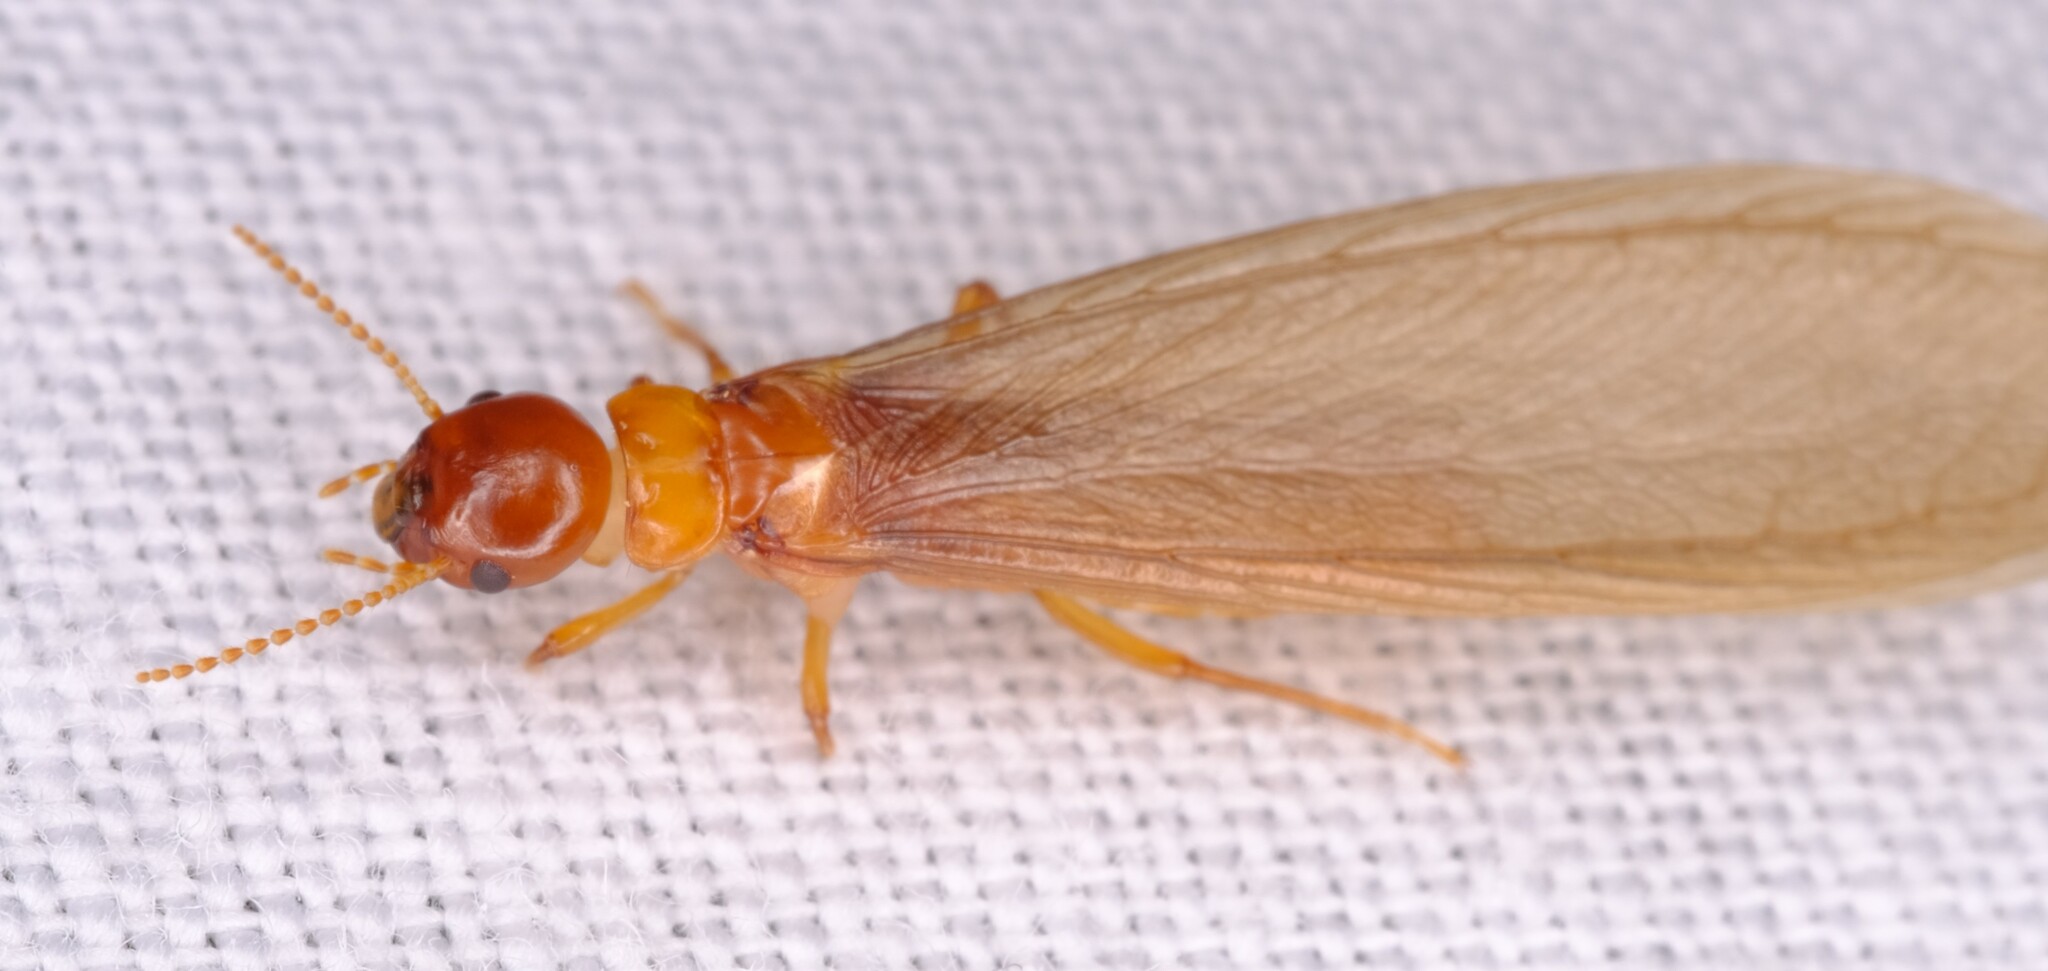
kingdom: Animalia
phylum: Arthropoda
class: Insecta
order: Blattodea
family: Stolotermitidae
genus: Porotermes
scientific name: Porotermes adamsoni
